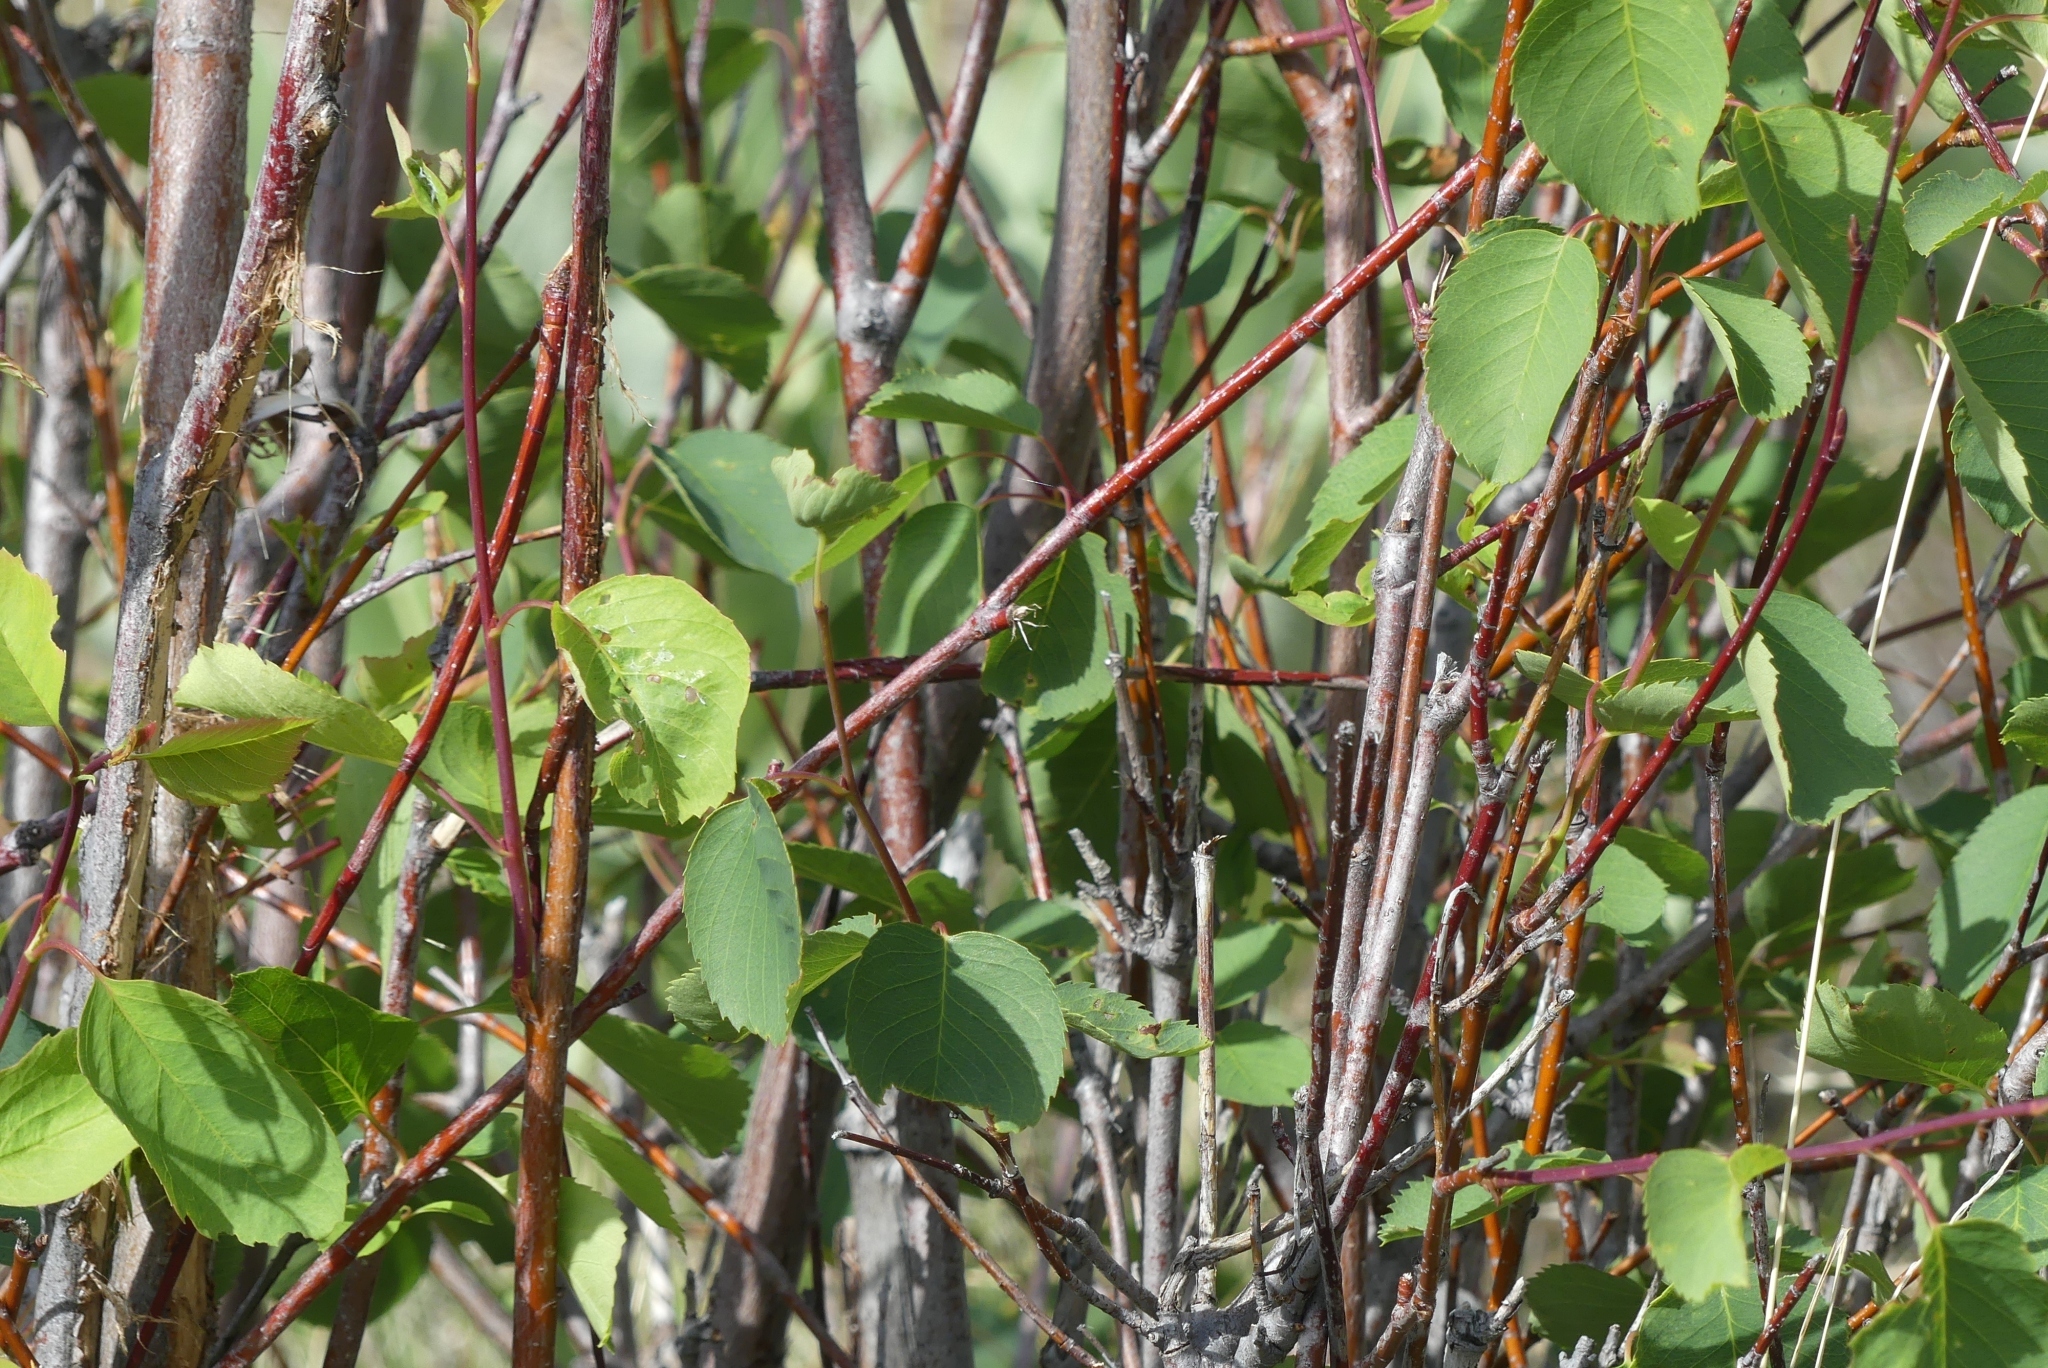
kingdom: Plantae
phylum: Tracheophyta
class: Magnoliopsida
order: Rosales
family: Rosaceae
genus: Amelanchier
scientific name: Amelanchier alnifolia
